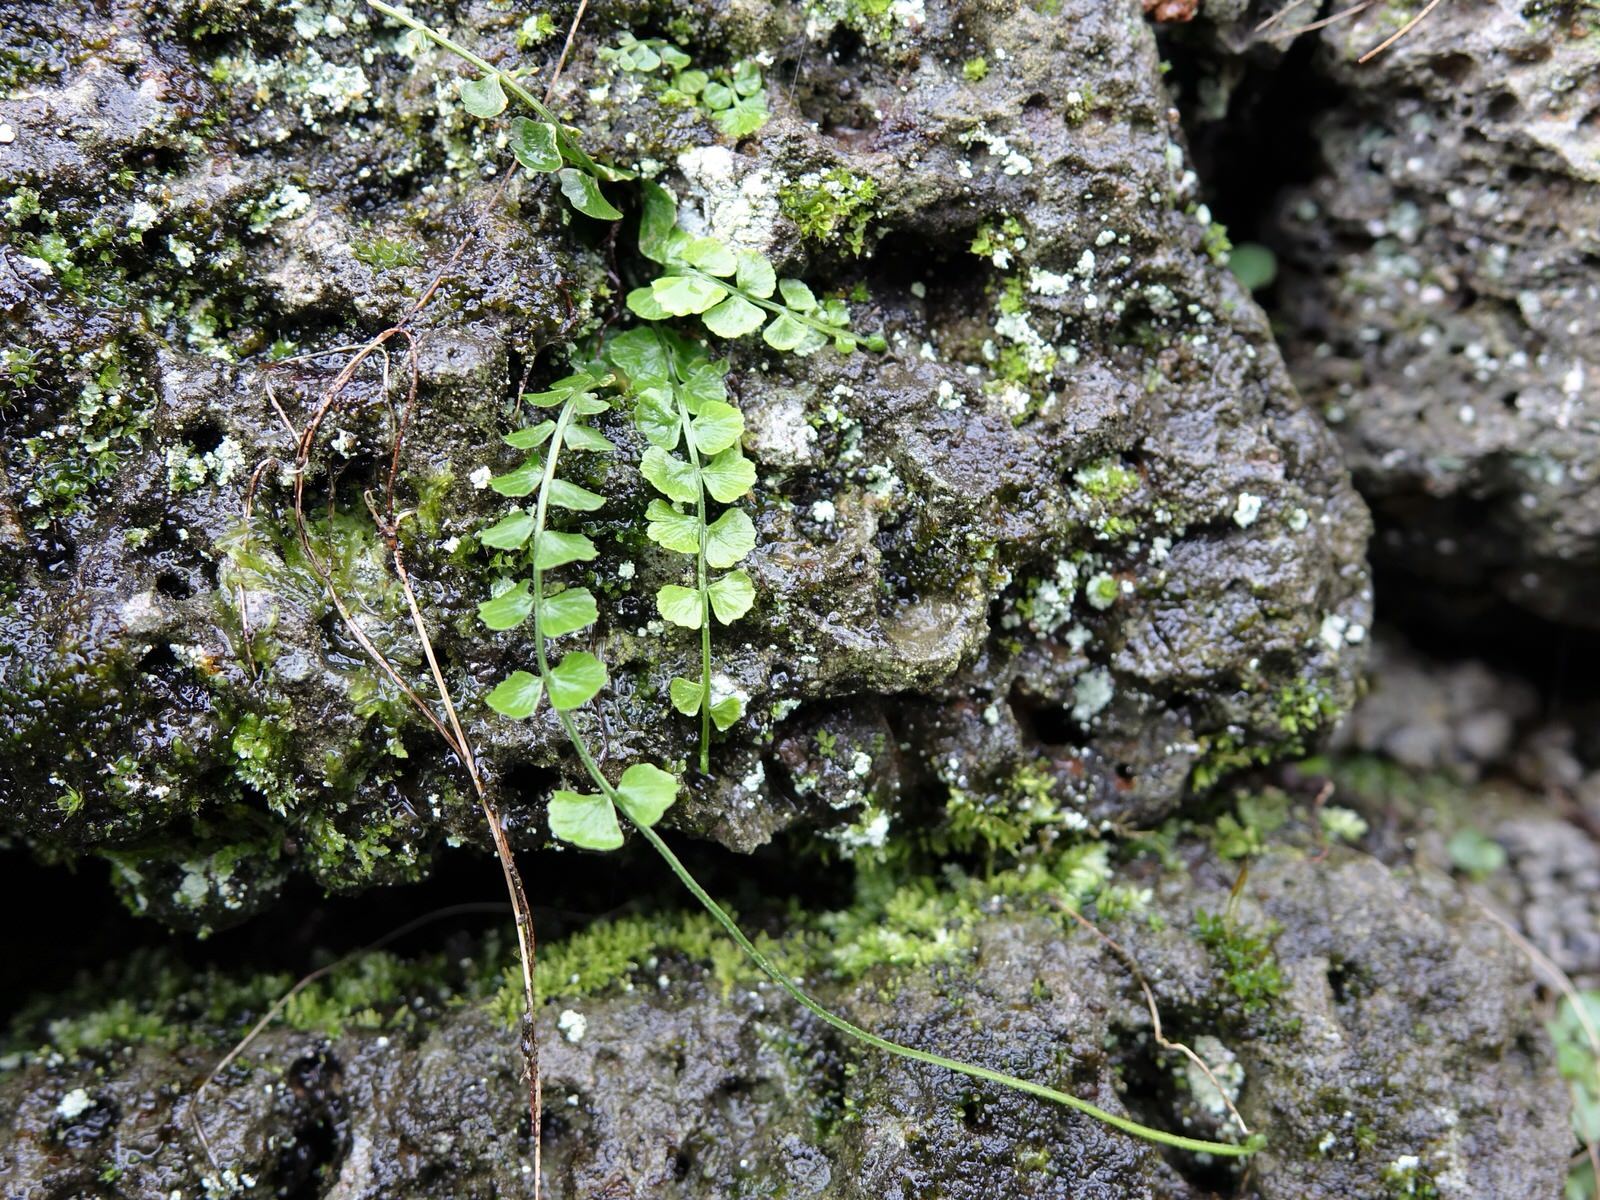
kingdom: Plantae
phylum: Tracheophyta
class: Polypodiopsida
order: Polypodiales
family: Aspleniaceae
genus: Asplenium
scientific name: Asplenium flabellifolium
